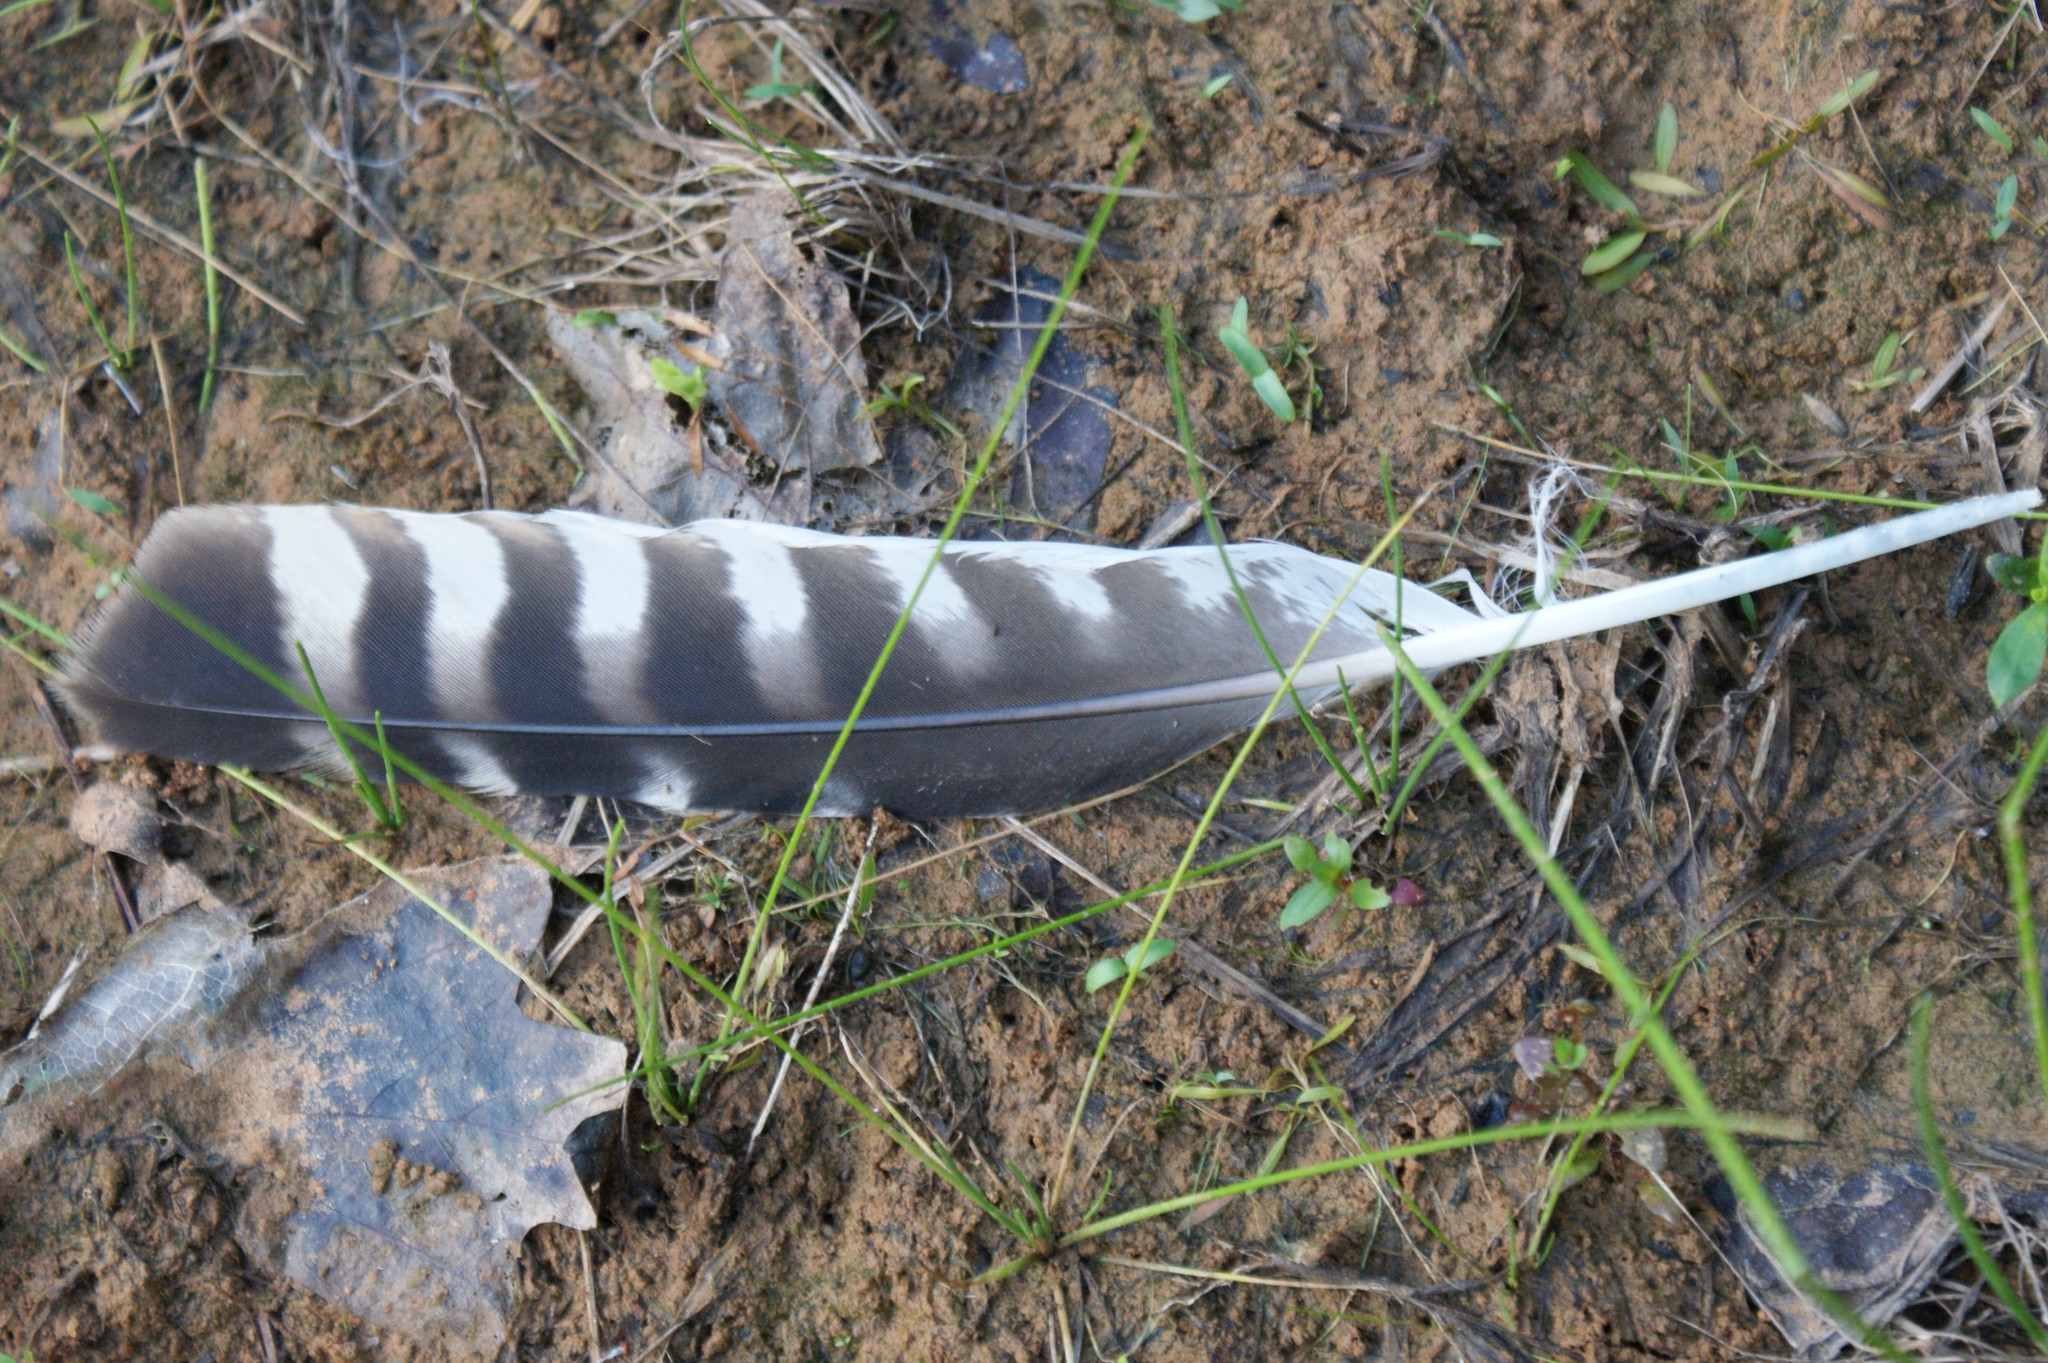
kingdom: Animalia
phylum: Chordata
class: Aves
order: Accipitriformes
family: Accipitridae
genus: Buteo
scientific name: Buteo lineatus
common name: Red-shouldered hawk
